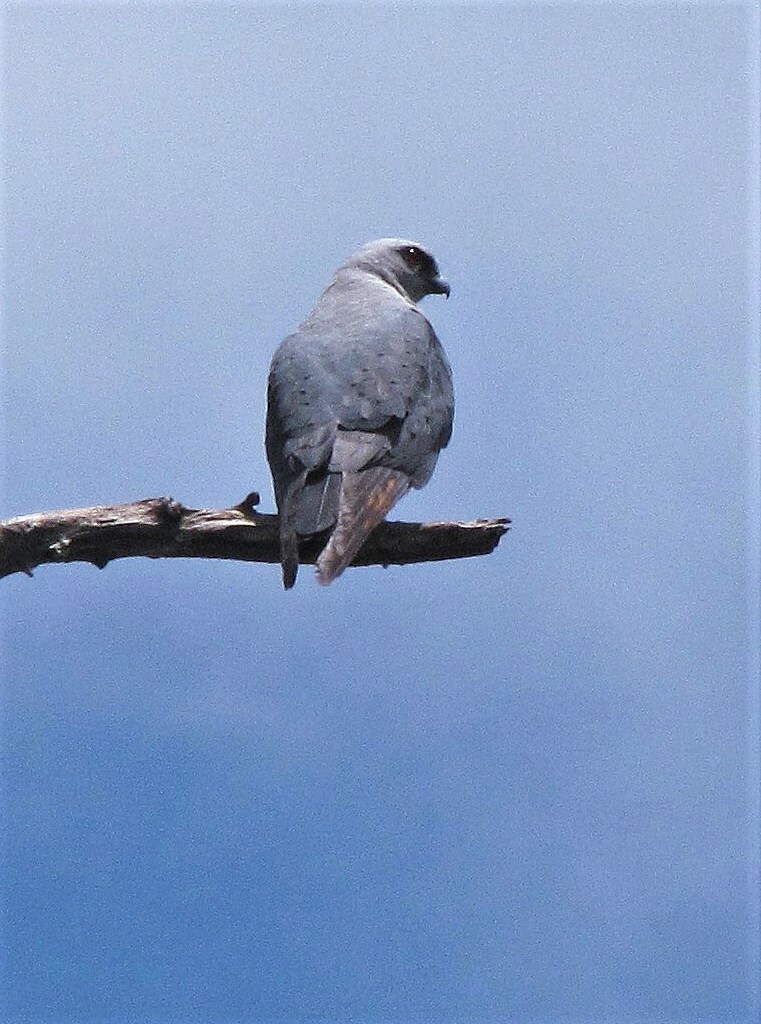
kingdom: Animalia
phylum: Chordata
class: Aves
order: Accipitriformes
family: Accipitridae
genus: Ictinia
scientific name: Ictinia plumbea
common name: Plumbeous kite
